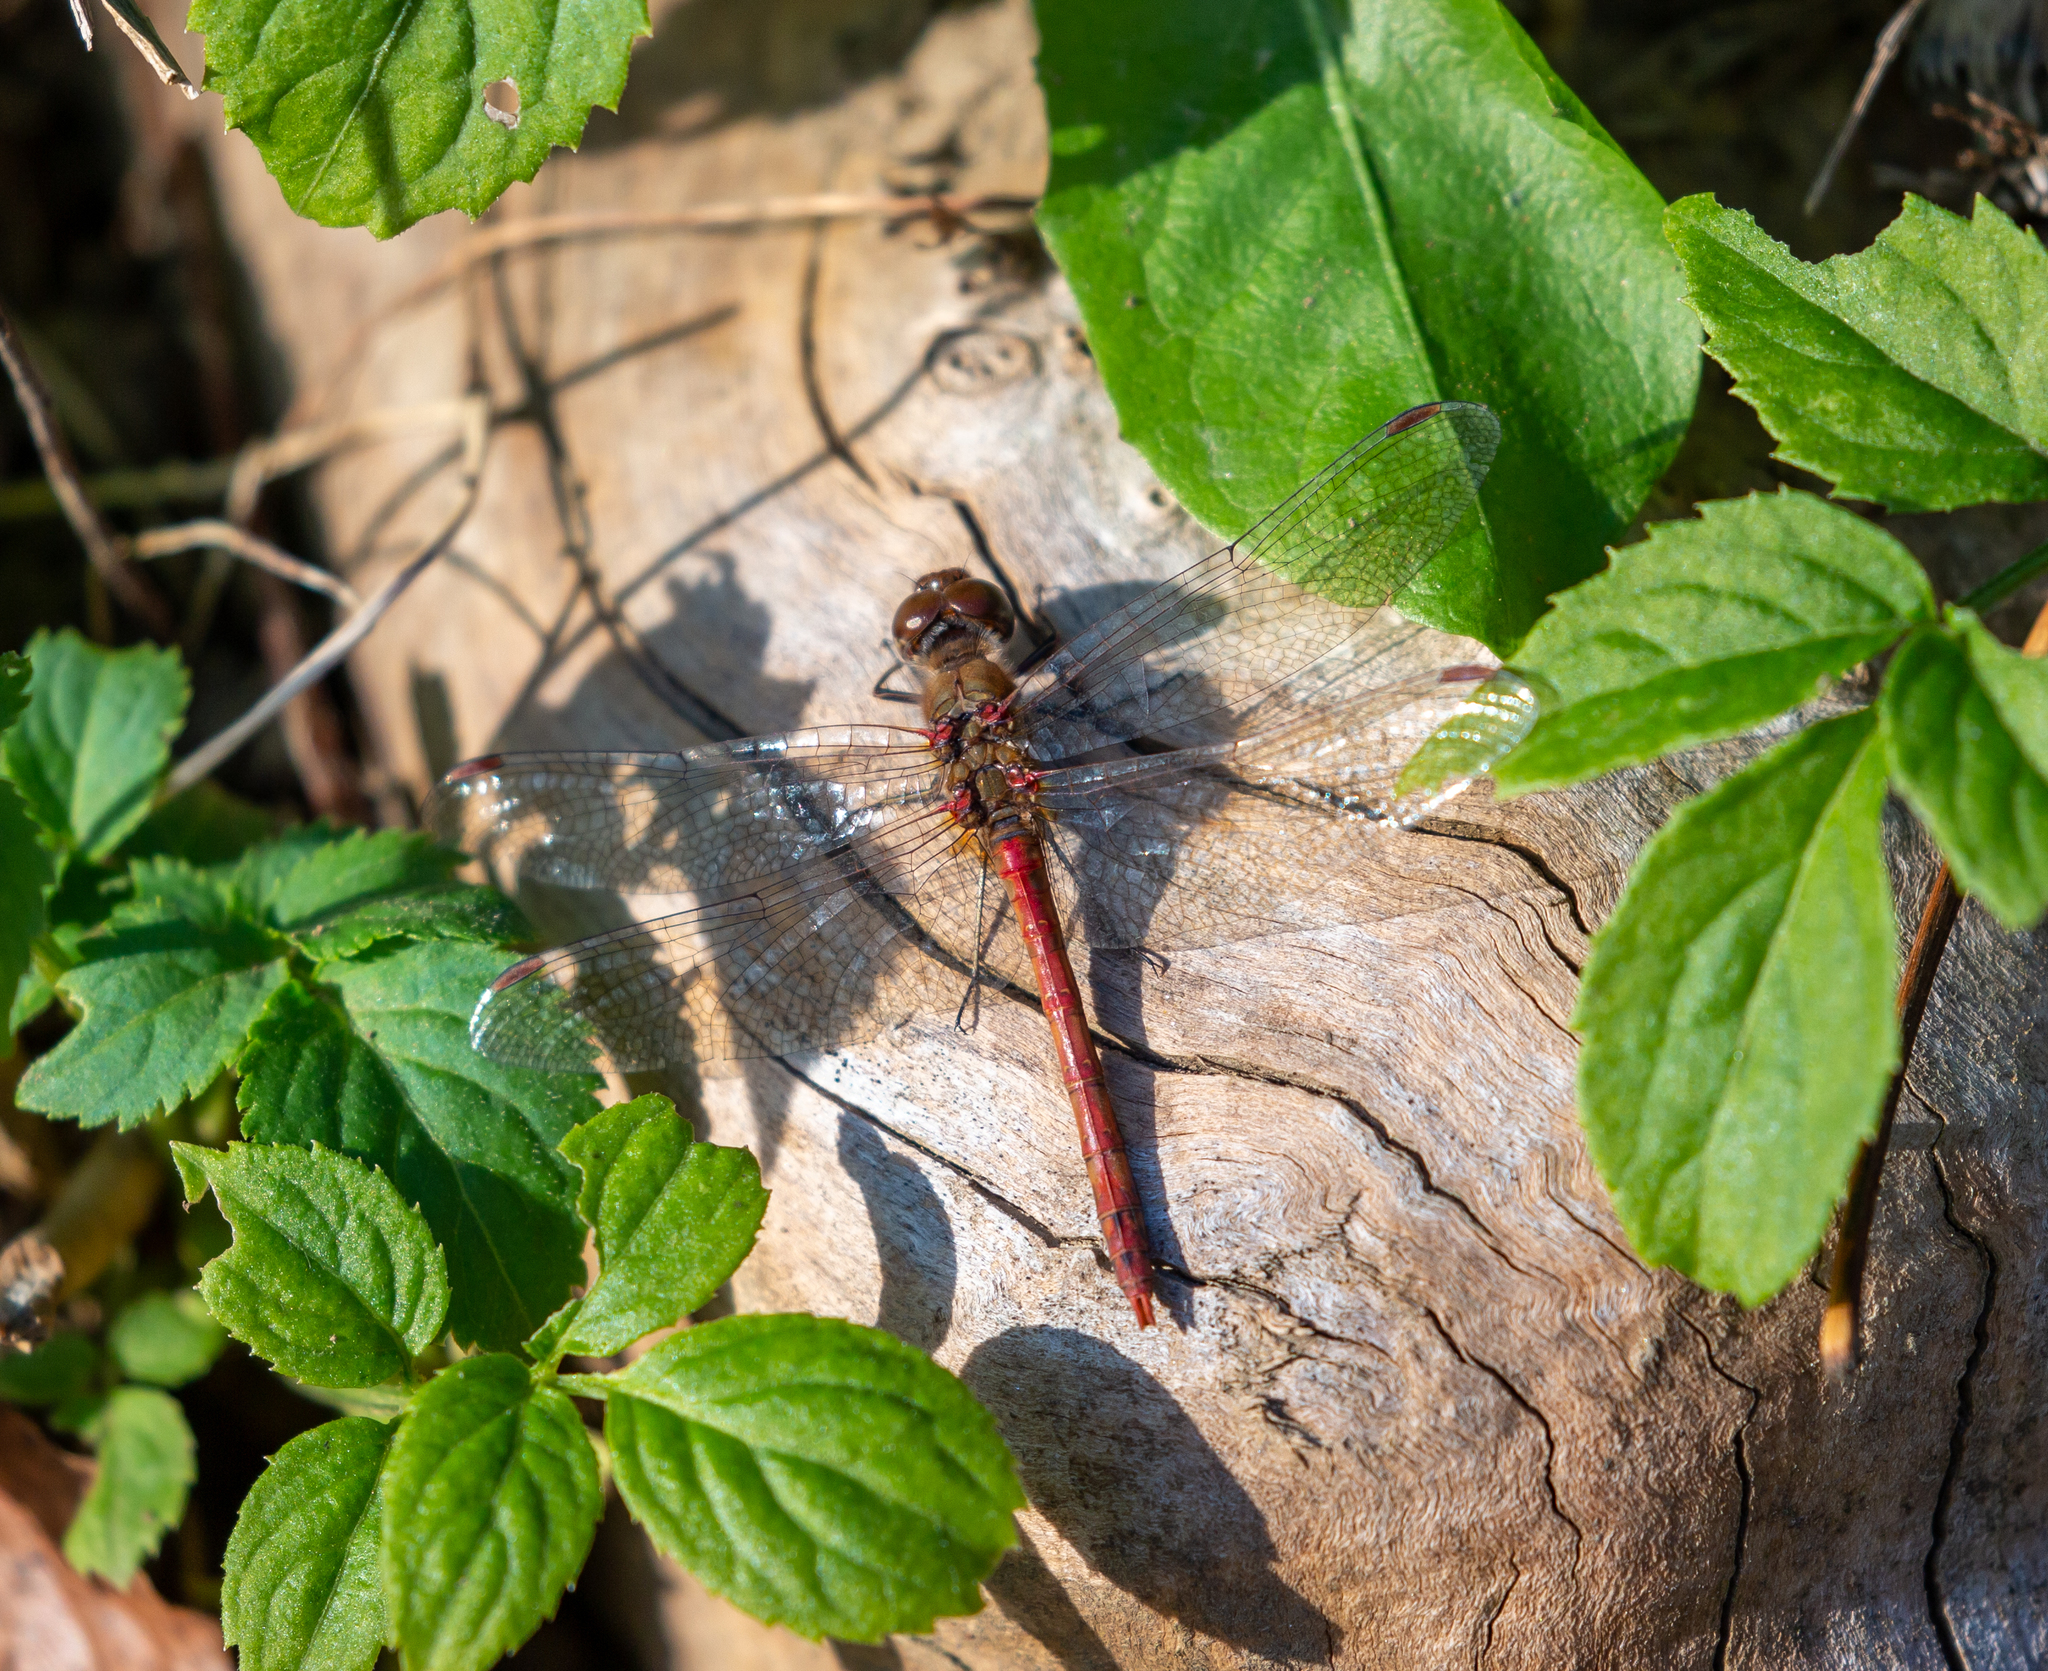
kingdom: Animalia
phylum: Arthropoda
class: Insecta
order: Odonata
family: Libellulidae
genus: Sympetrum
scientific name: Sympetrum striolatum
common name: Common darter
